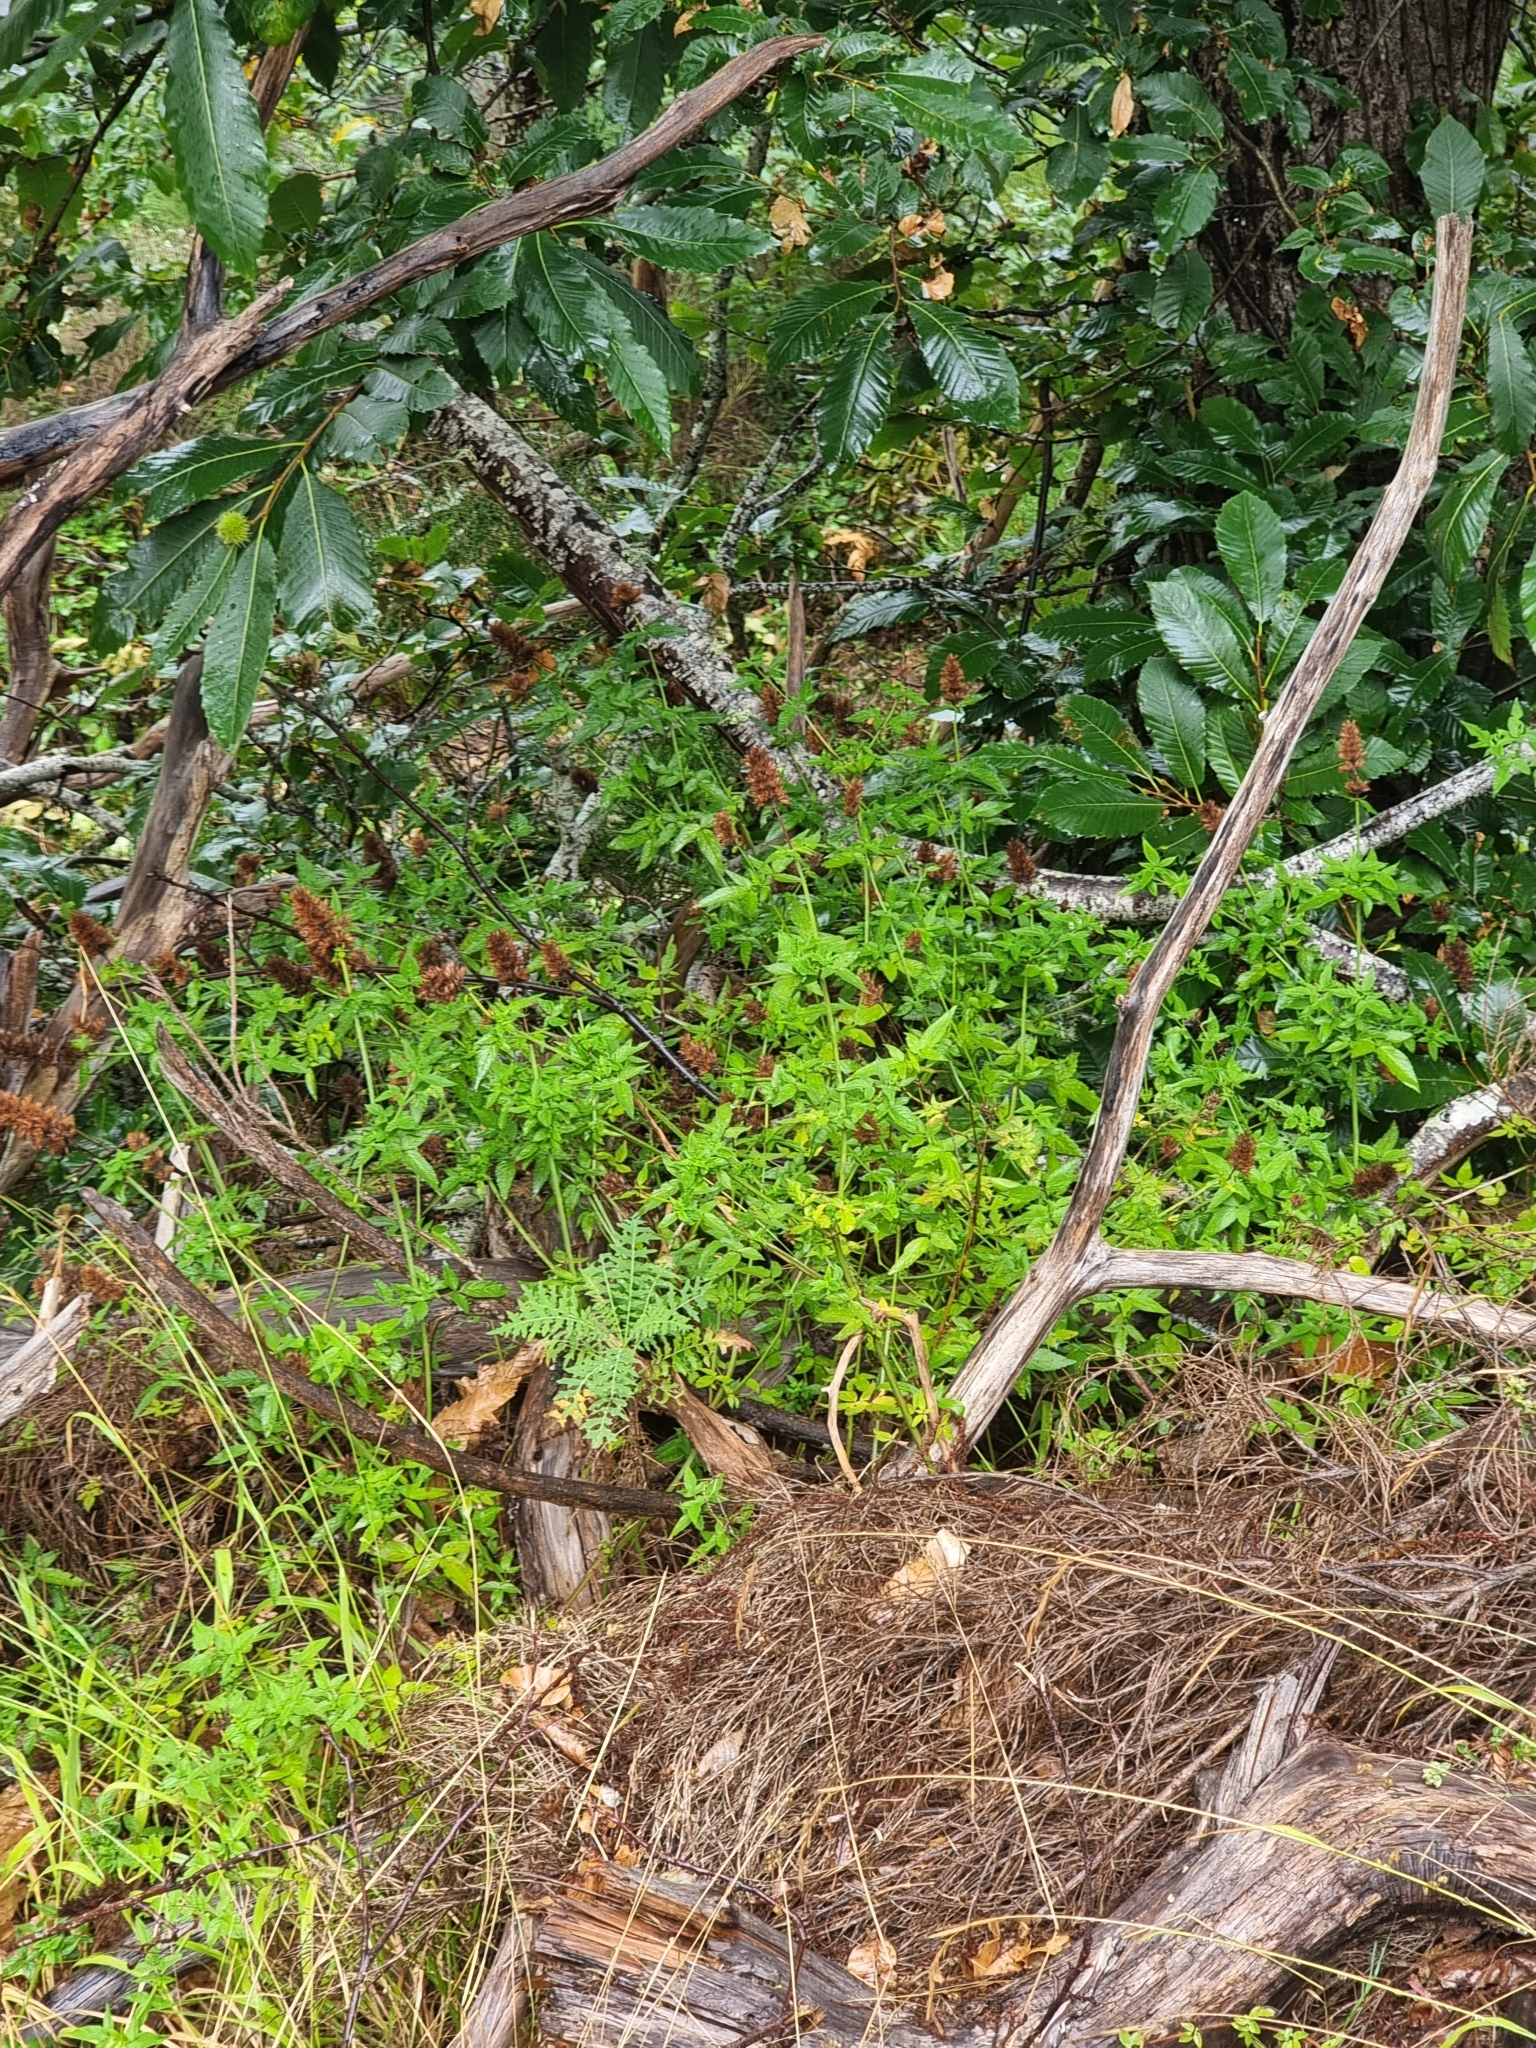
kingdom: Plantae
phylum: Tracheophyta
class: Magnoliopsida
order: Lamiales
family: Lamiaceae
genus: Cedronella
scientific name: Cedronella canariensis
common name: Canary islands balm
